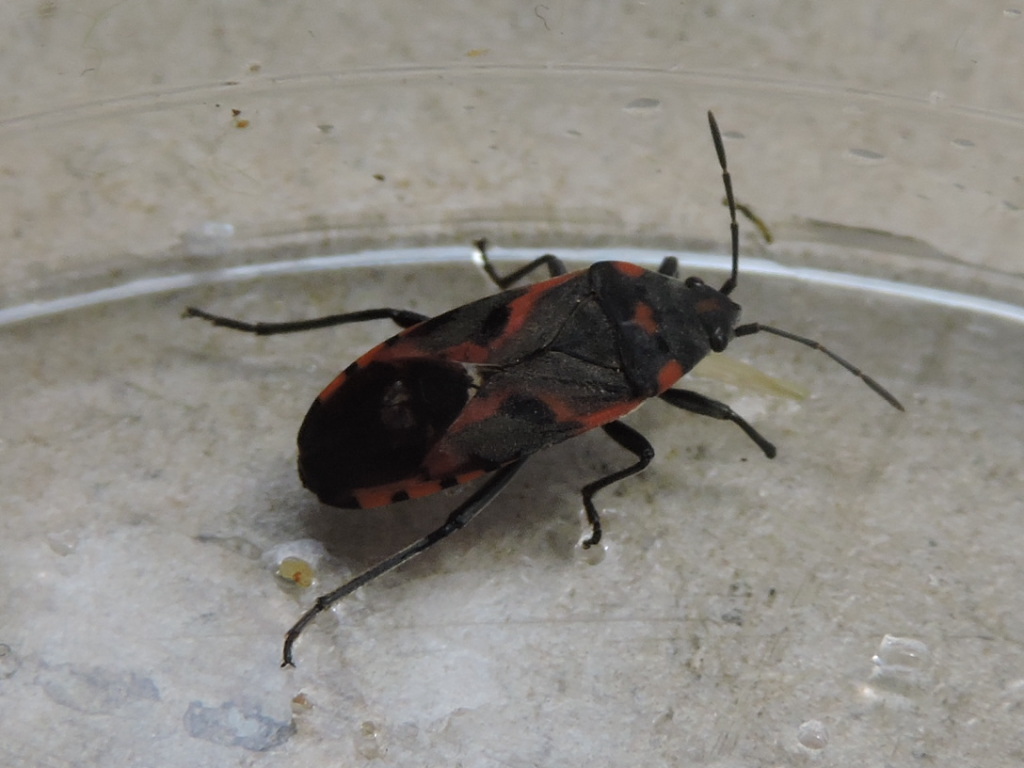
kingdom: Animalia
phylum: Arthropoda
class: Insecta
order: Hemiptera
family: Lygaeidae
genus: Lygaeus
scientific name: Lygaeus kalmii
